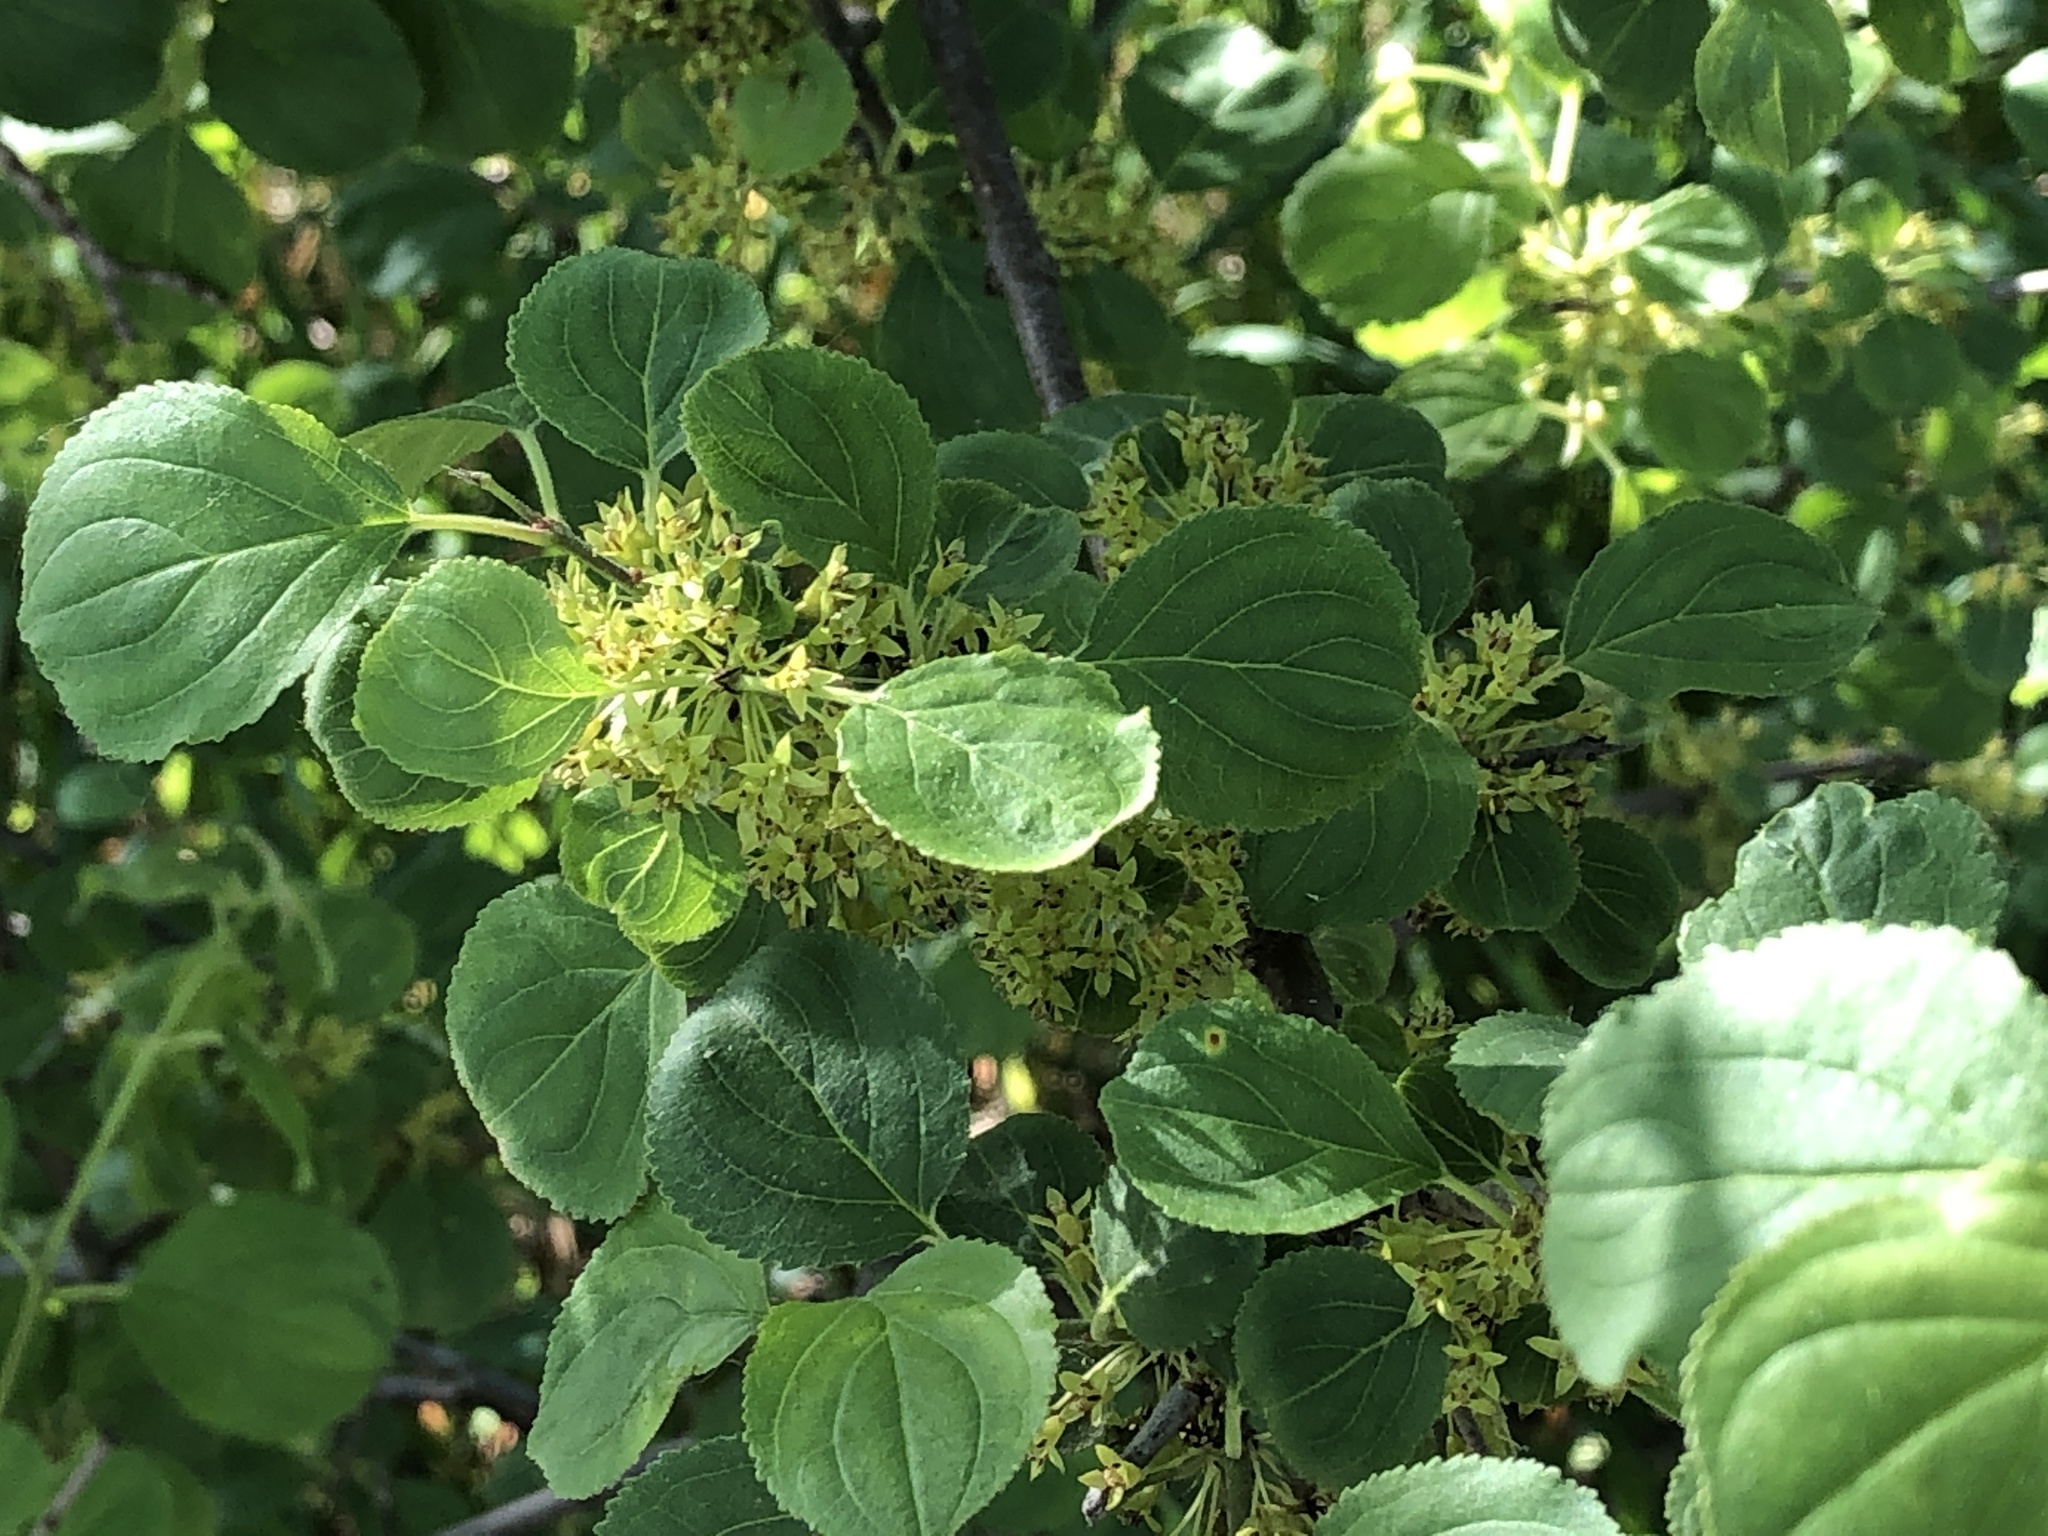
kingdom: Plantae
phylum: Tracheophyta
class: Magnoliopsida
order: Rosales
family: Rhamnaceae
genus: Rhamnus
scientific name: Rhamnus cathartica
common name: Common buckthorn
